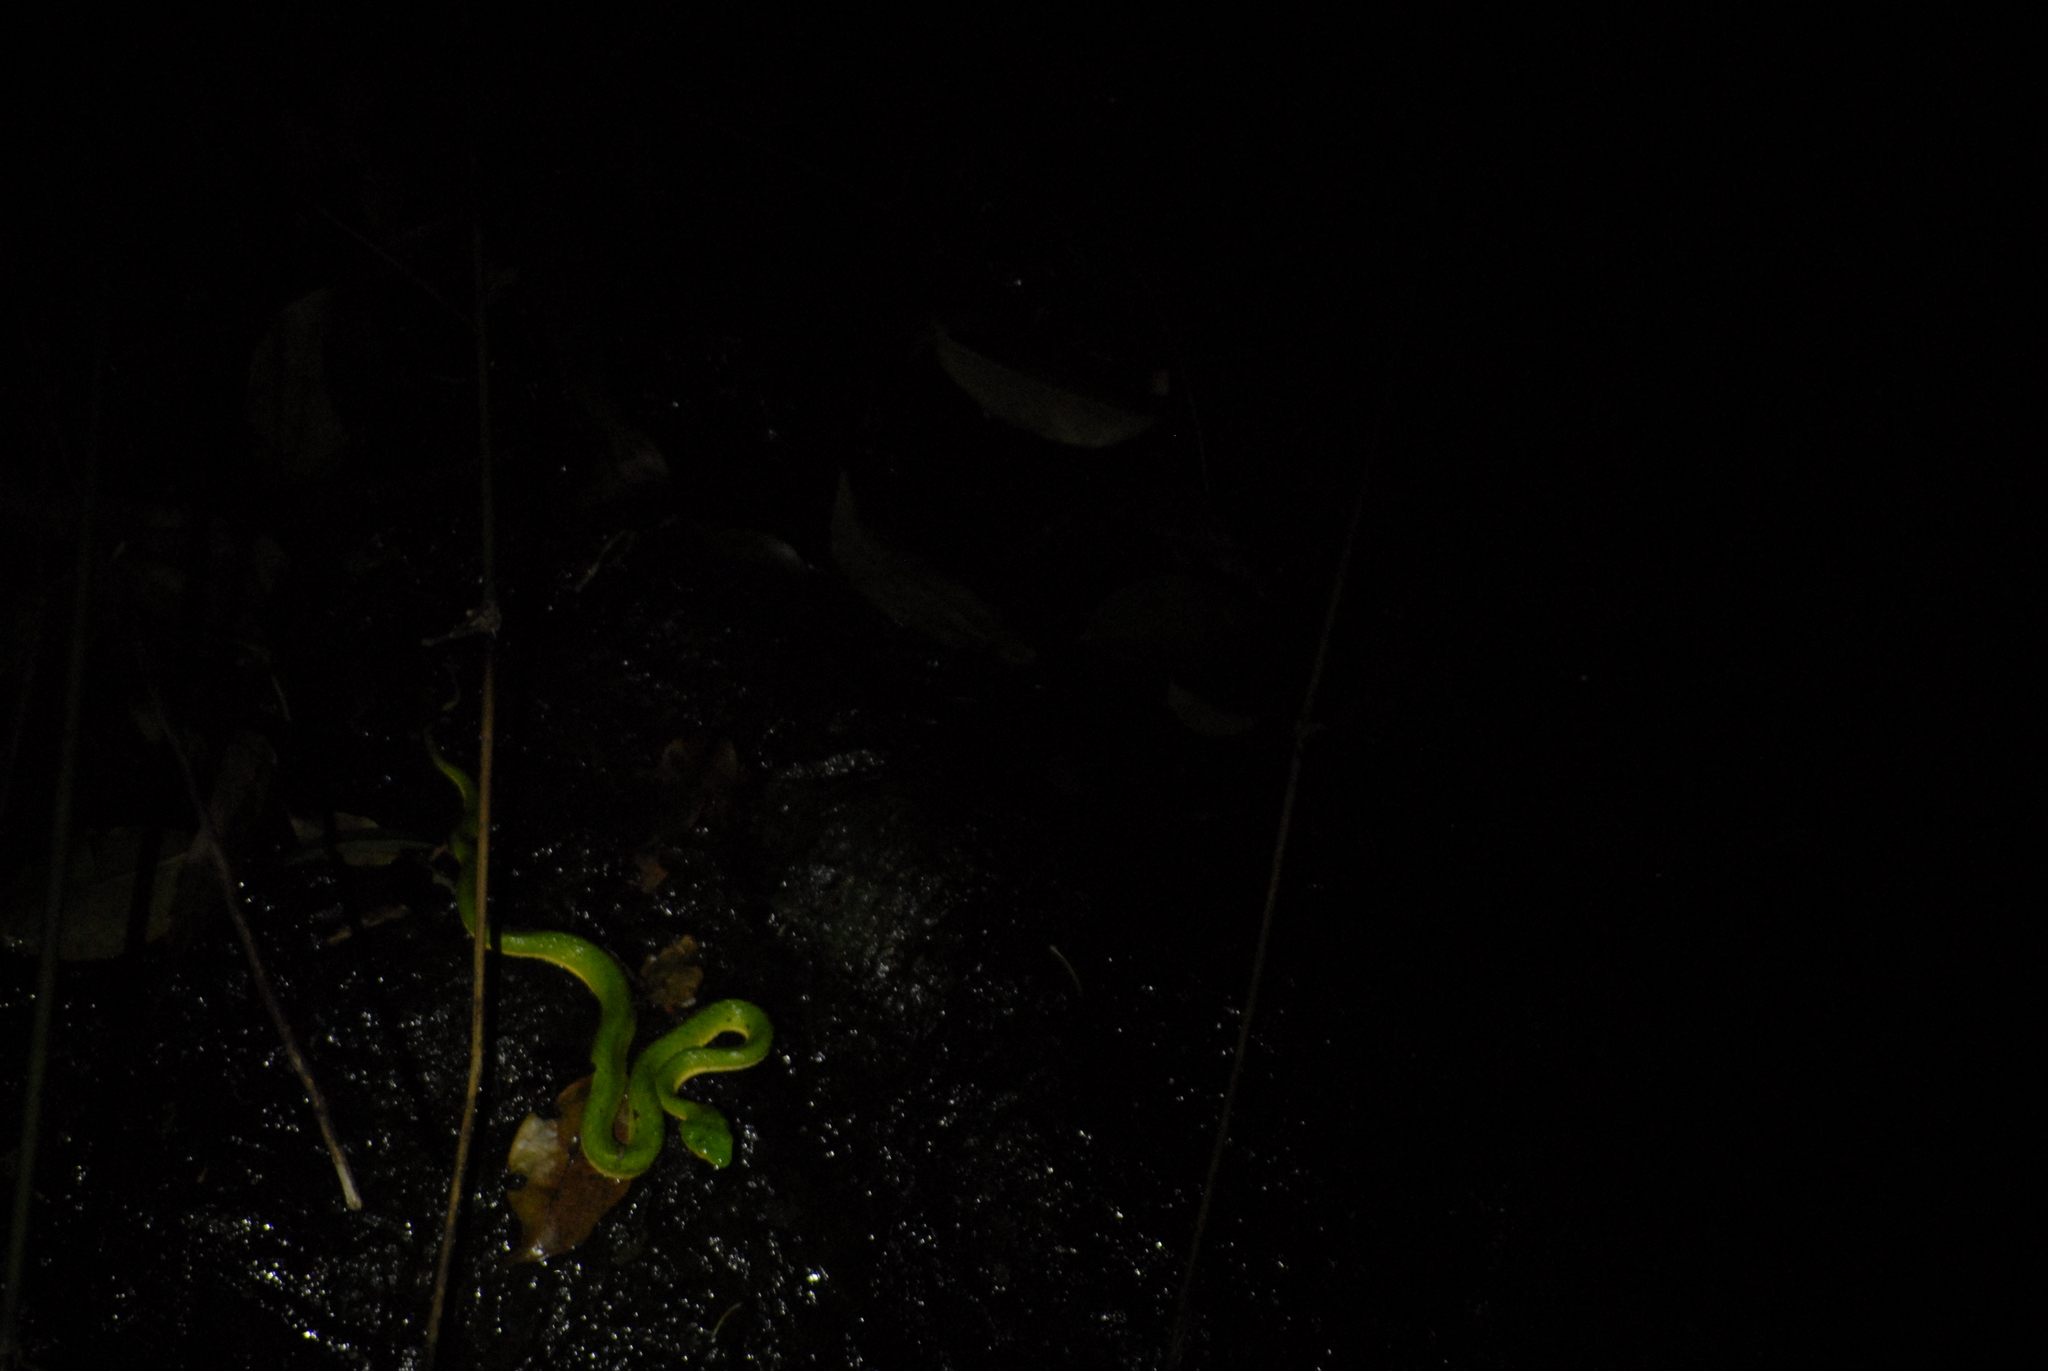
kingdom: Animalia
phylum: Chordata
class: Squamata
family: Viperidae
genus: Craspedocephalus
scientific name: Craspedocephalus peltopelor
